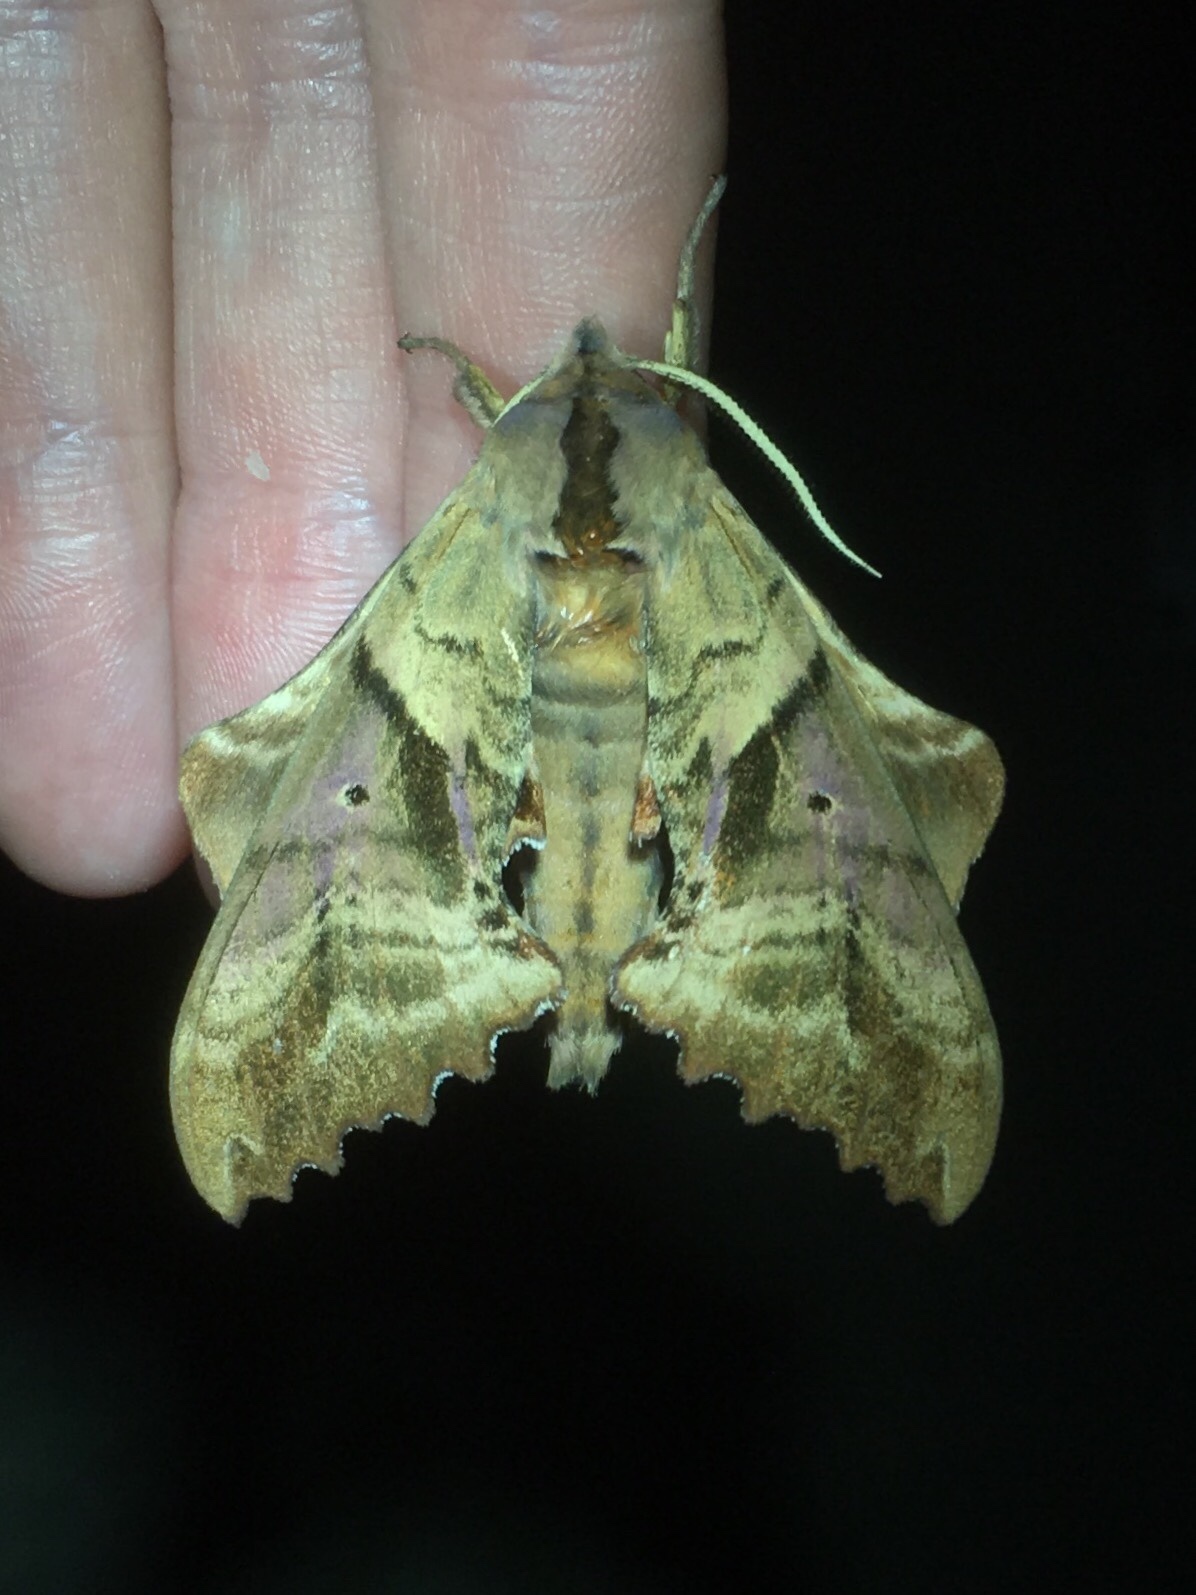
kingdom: Animalia
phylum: Arthropoda
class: Insecta
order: Lepidoptera
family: Sphingidae
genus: Paonias
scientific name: Paonias excaecata
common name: Blind-eyed sphinx
